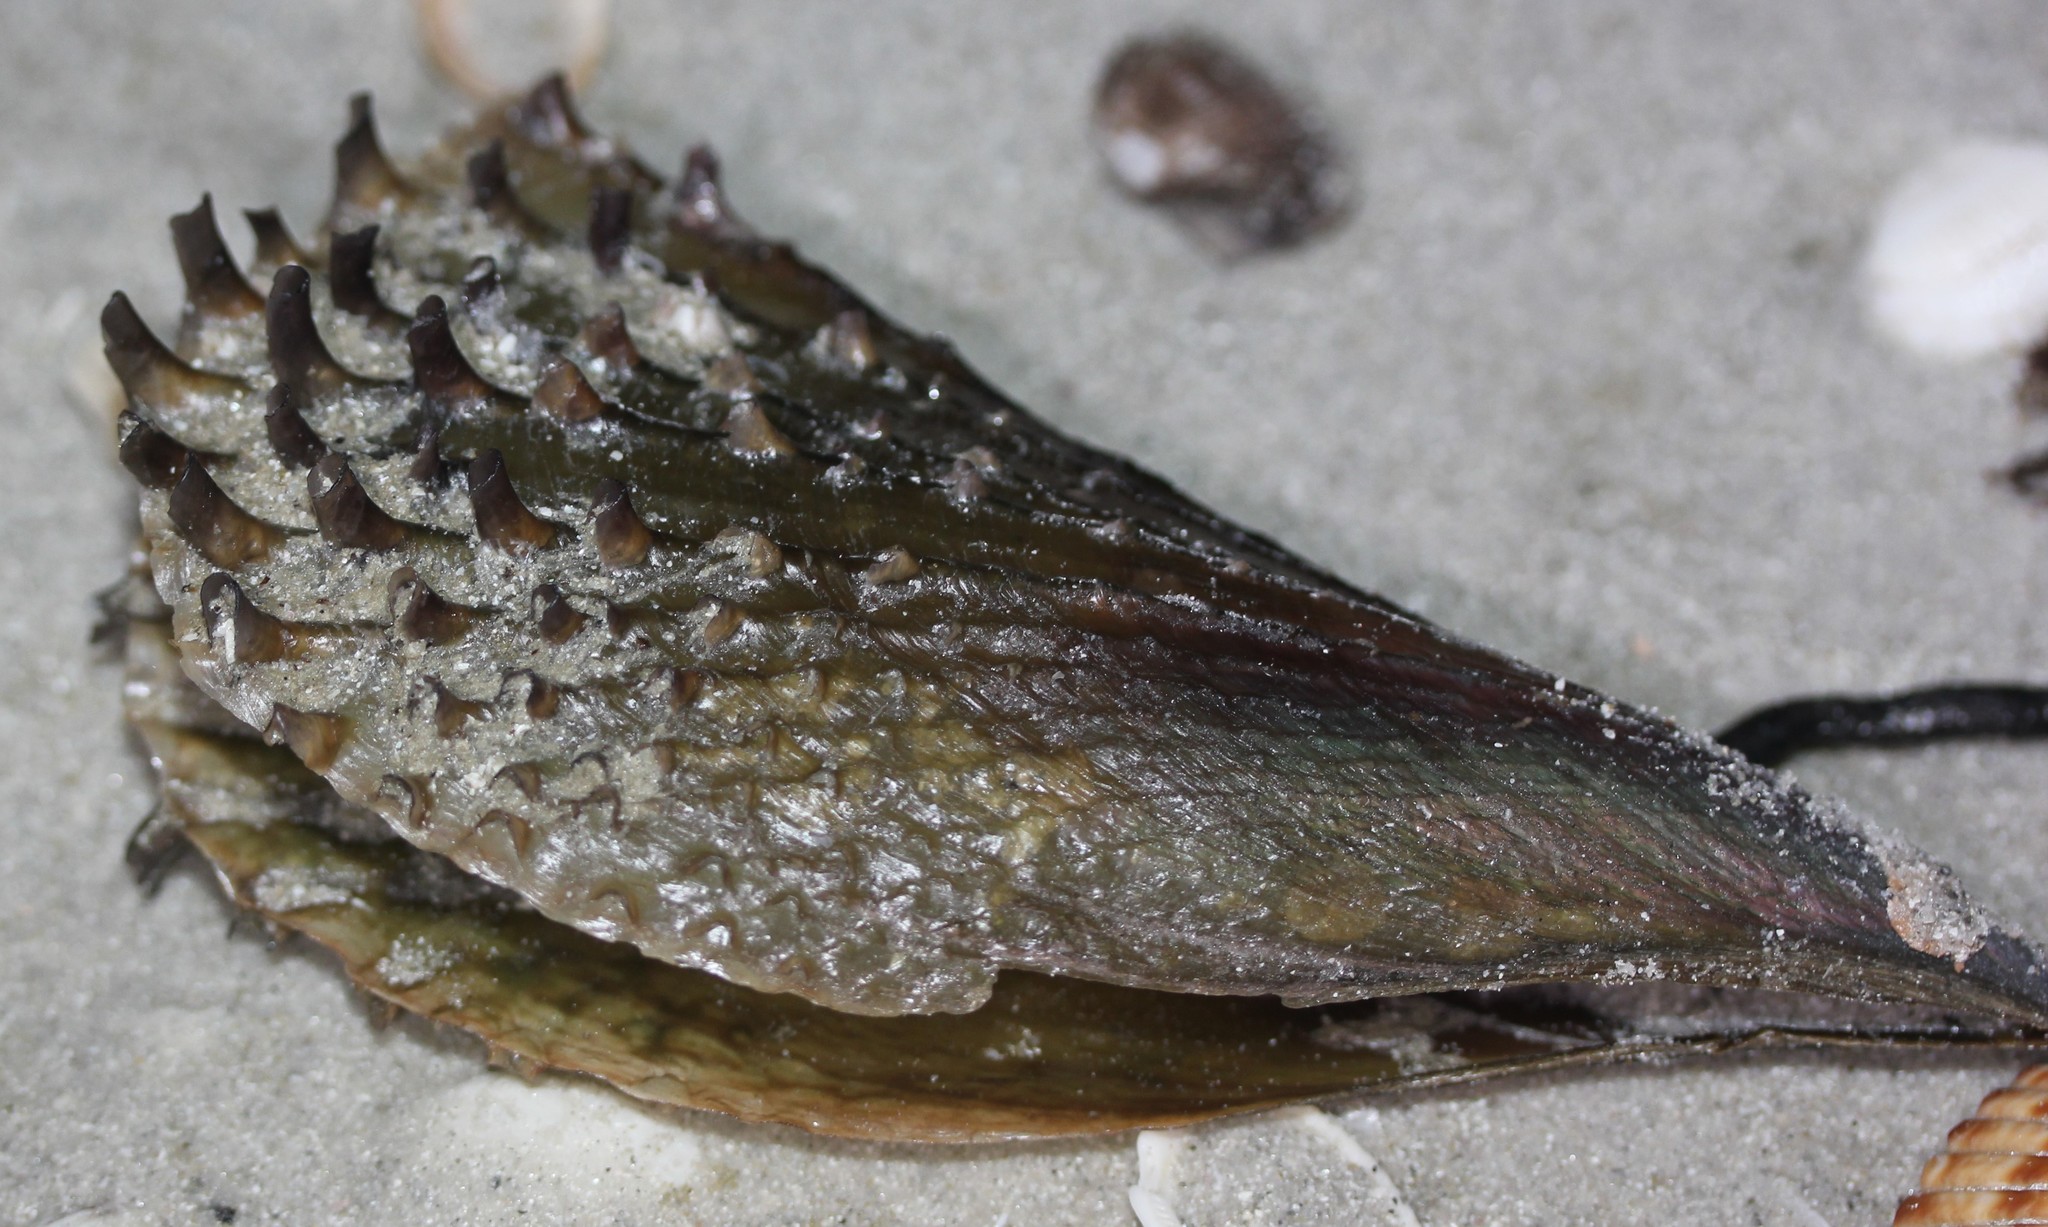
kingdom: Animalia
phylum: Mollusca
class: Bivalvia
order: Ostreida
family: Pinnidae
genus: Atrina
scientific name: Atrina rigida
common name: Stiff penshell
